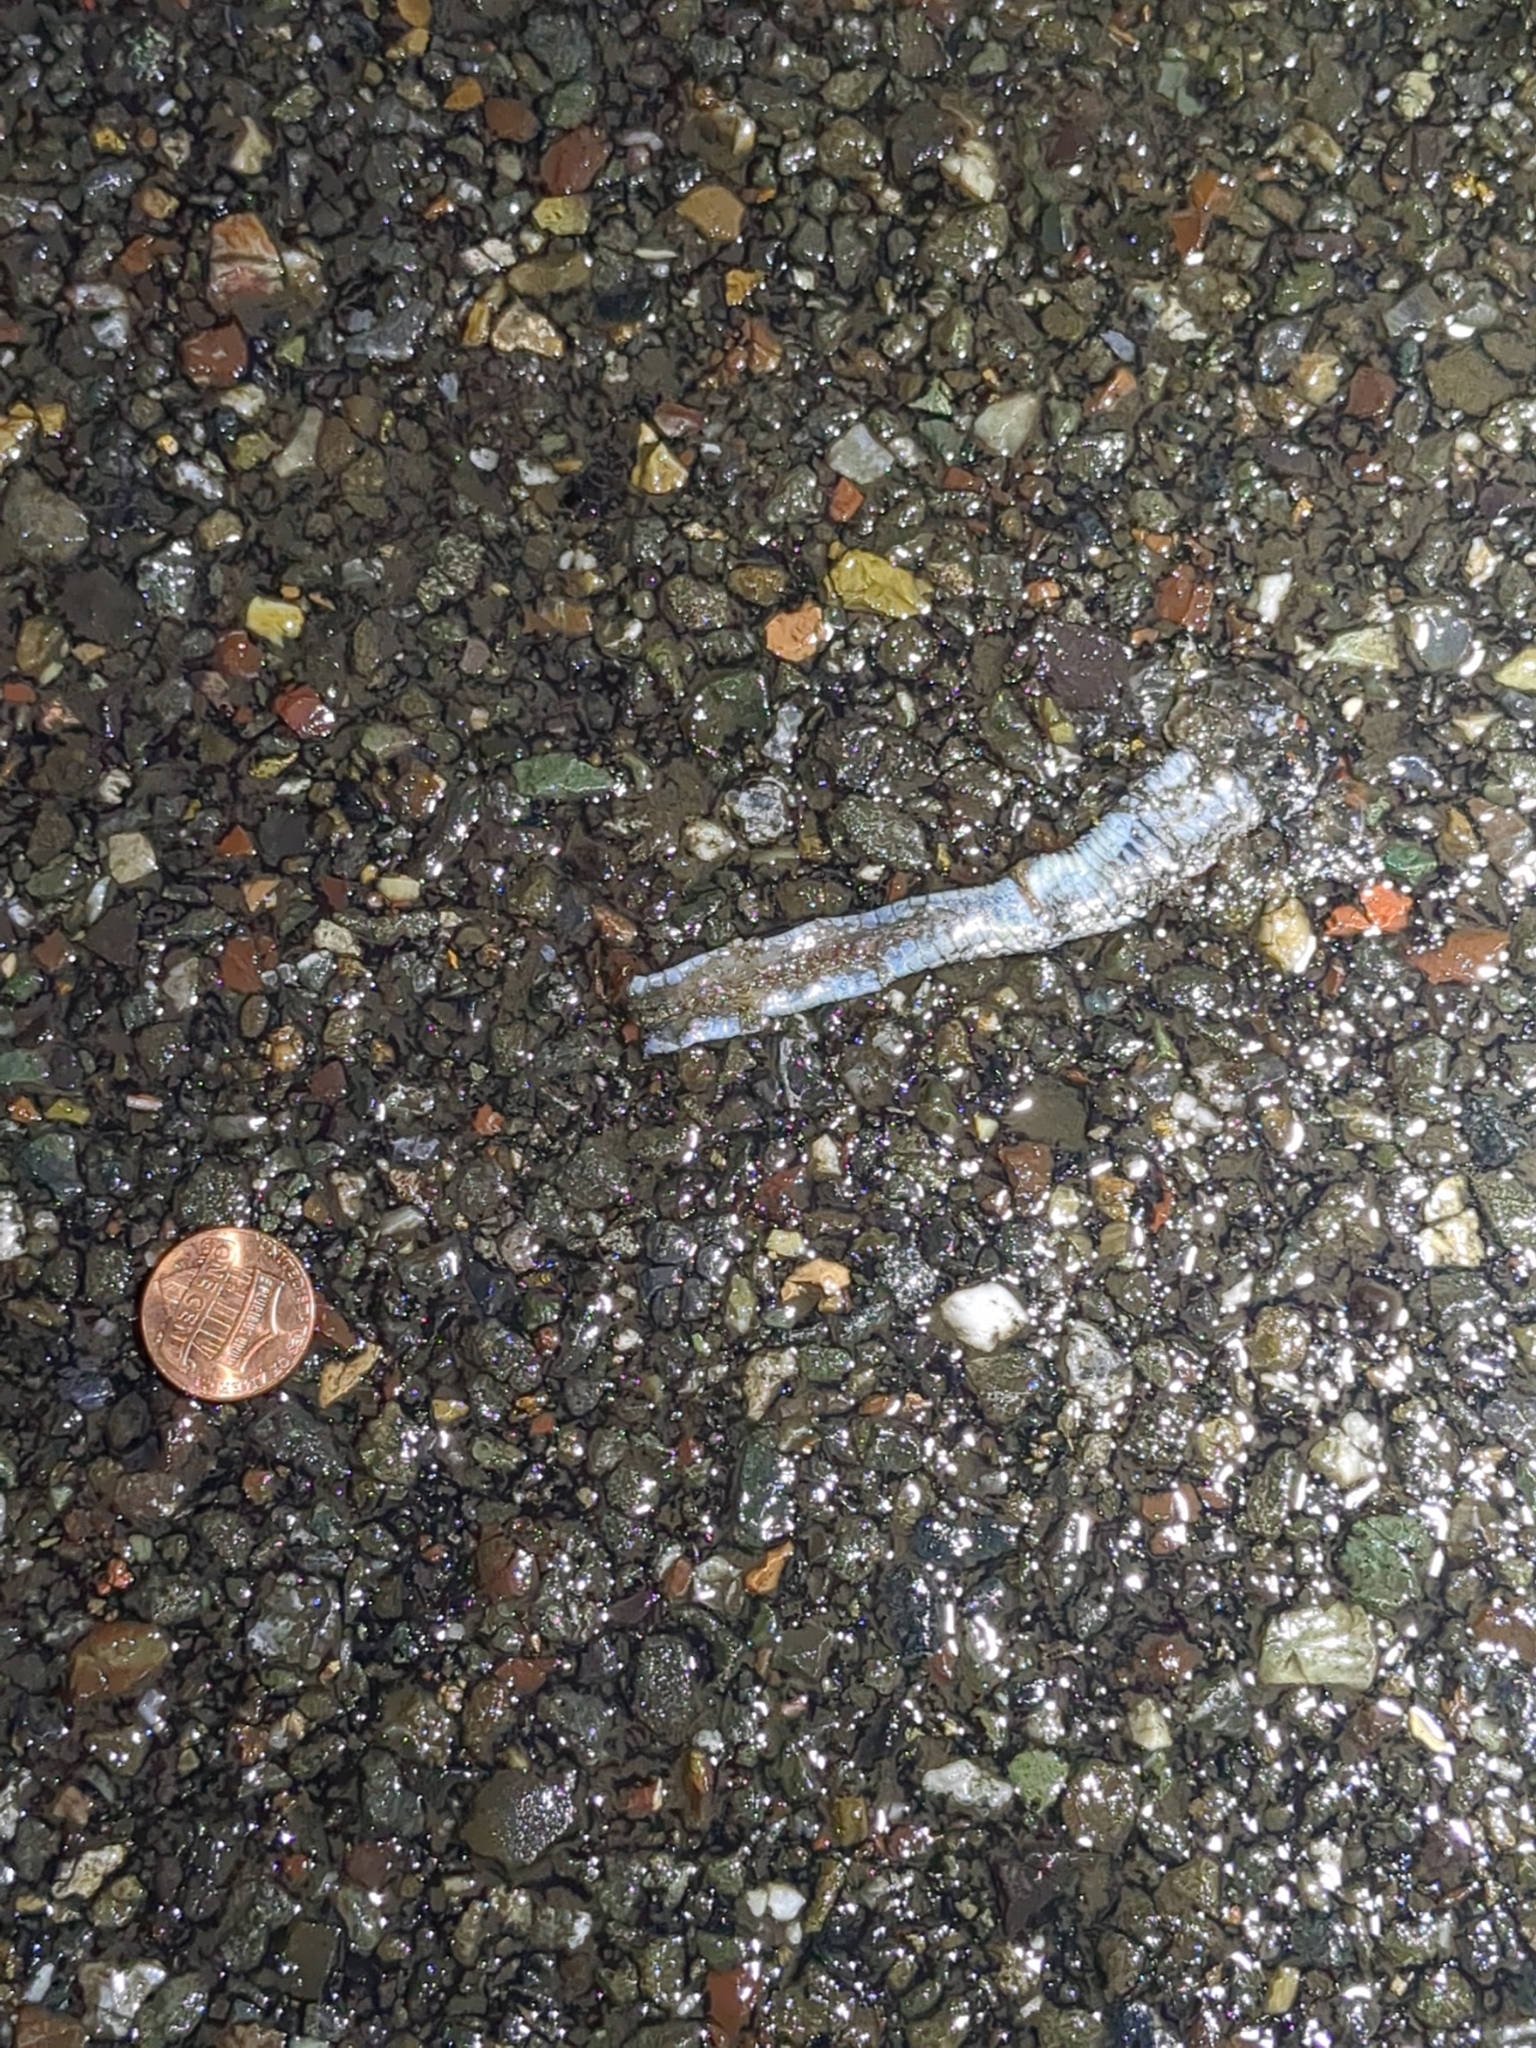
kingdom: Animalia
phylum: Chordata
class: Squamata
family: Colubridae
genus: Thamnophis
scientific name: Thamnophis sirtalis
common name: Common garter snake
